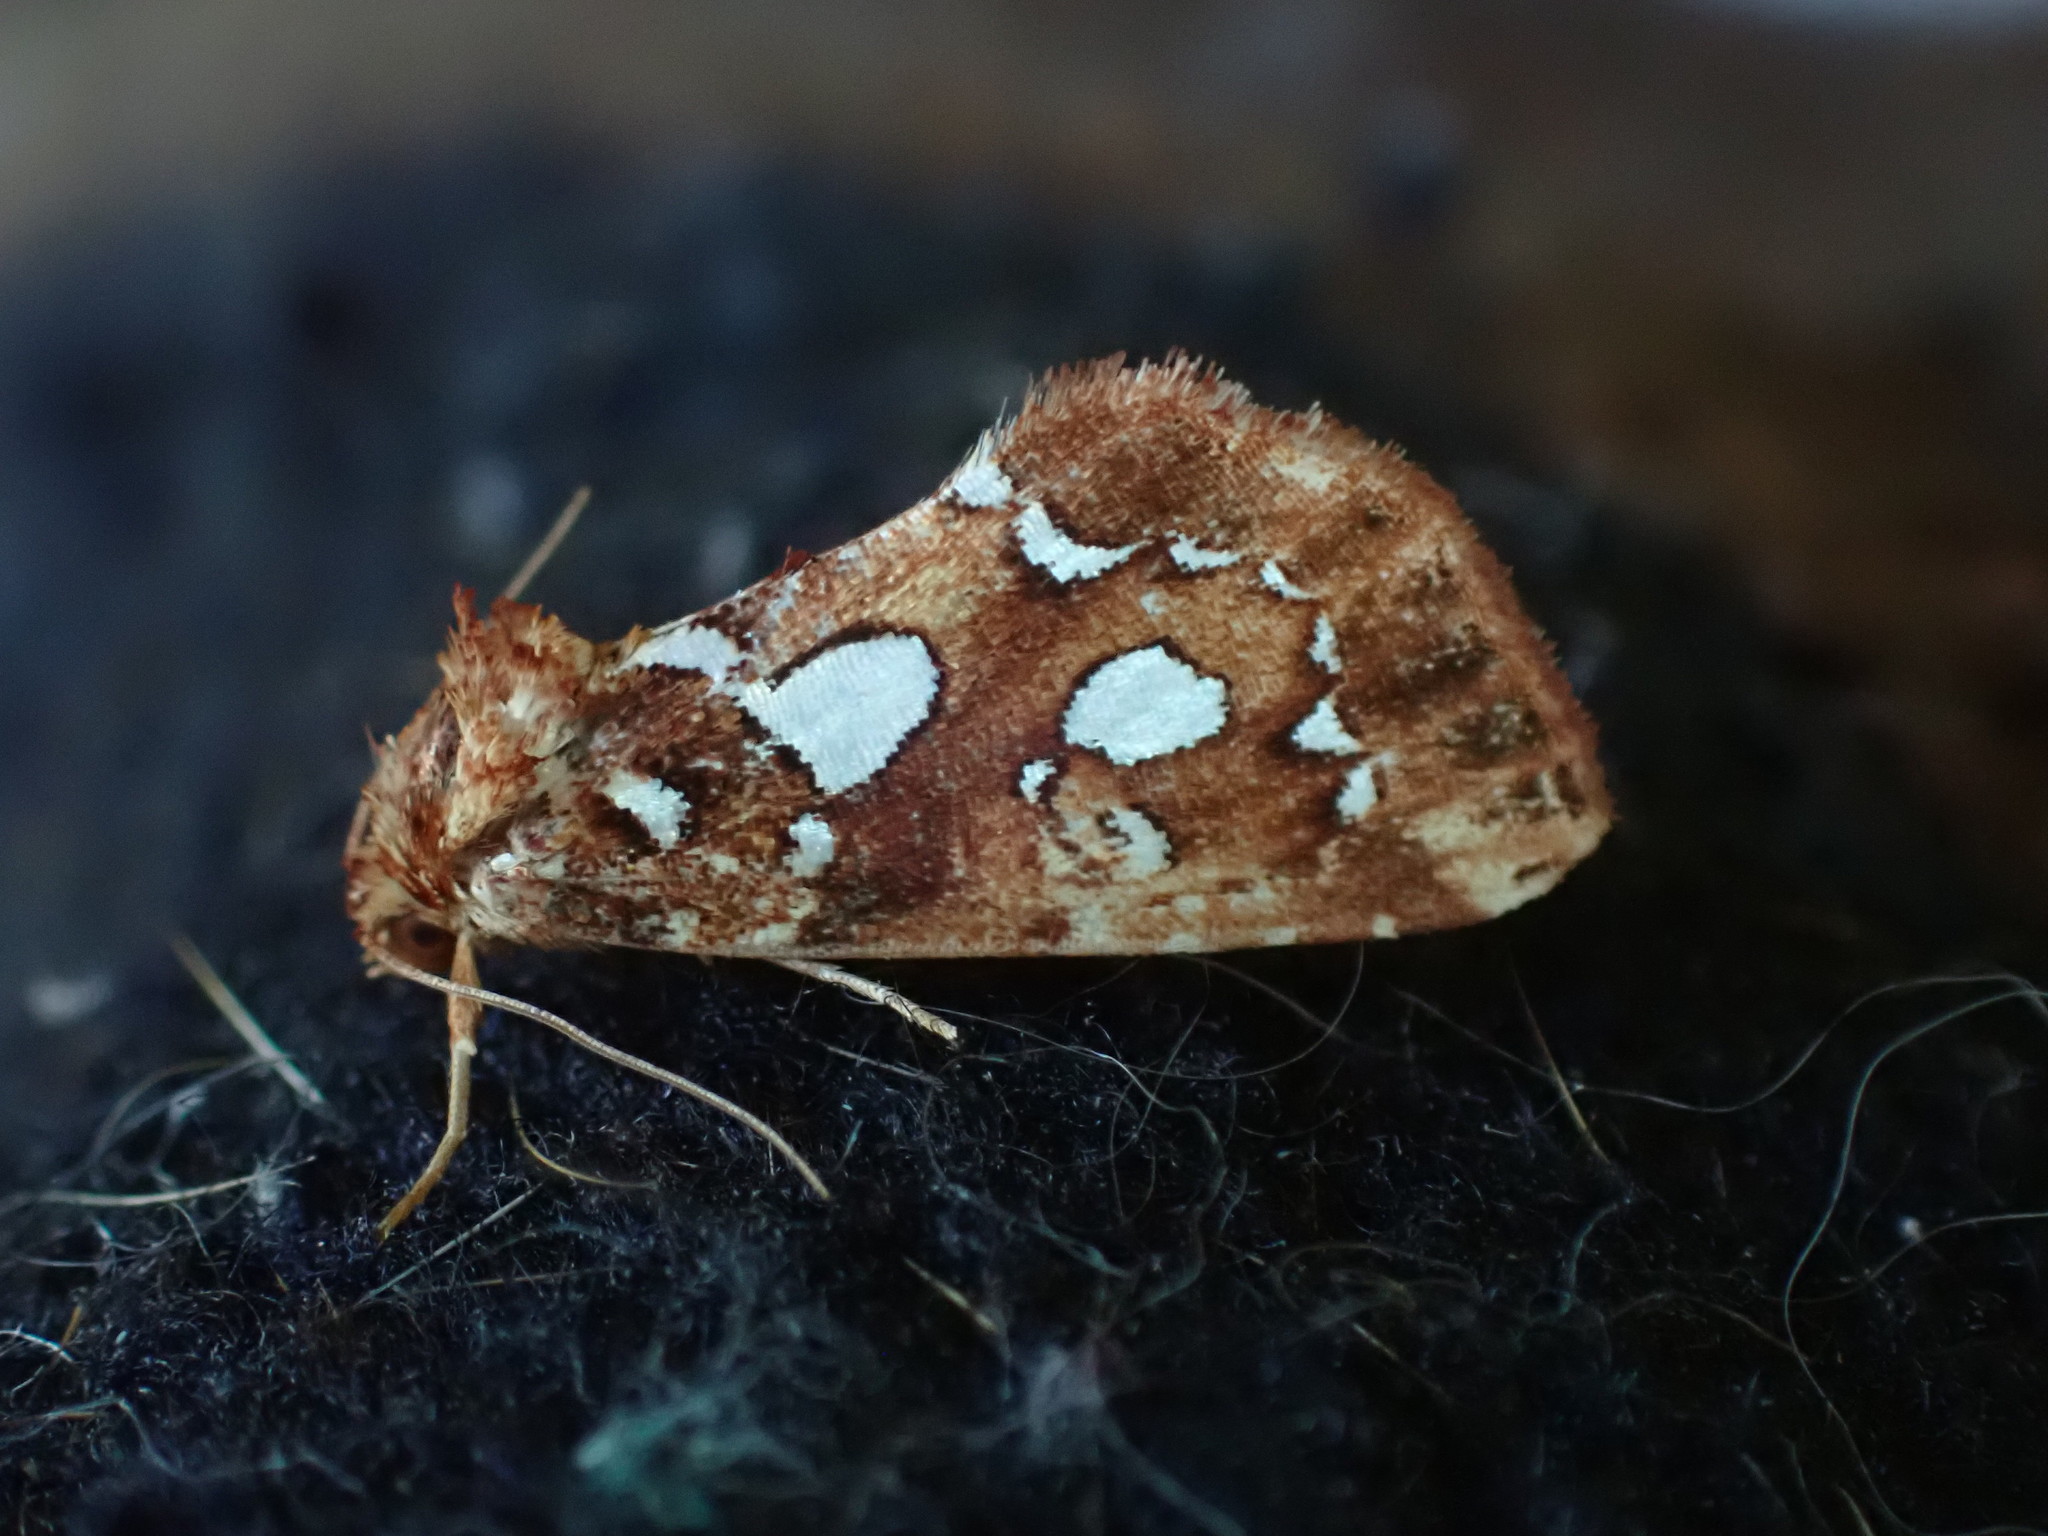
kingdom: Animalia
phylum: Arthropoda
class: Insecta
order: Lepidoptera
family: Noctuidae
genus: Callopistria
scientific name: Callopistria cordata
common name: Silver-spotted fern moth
